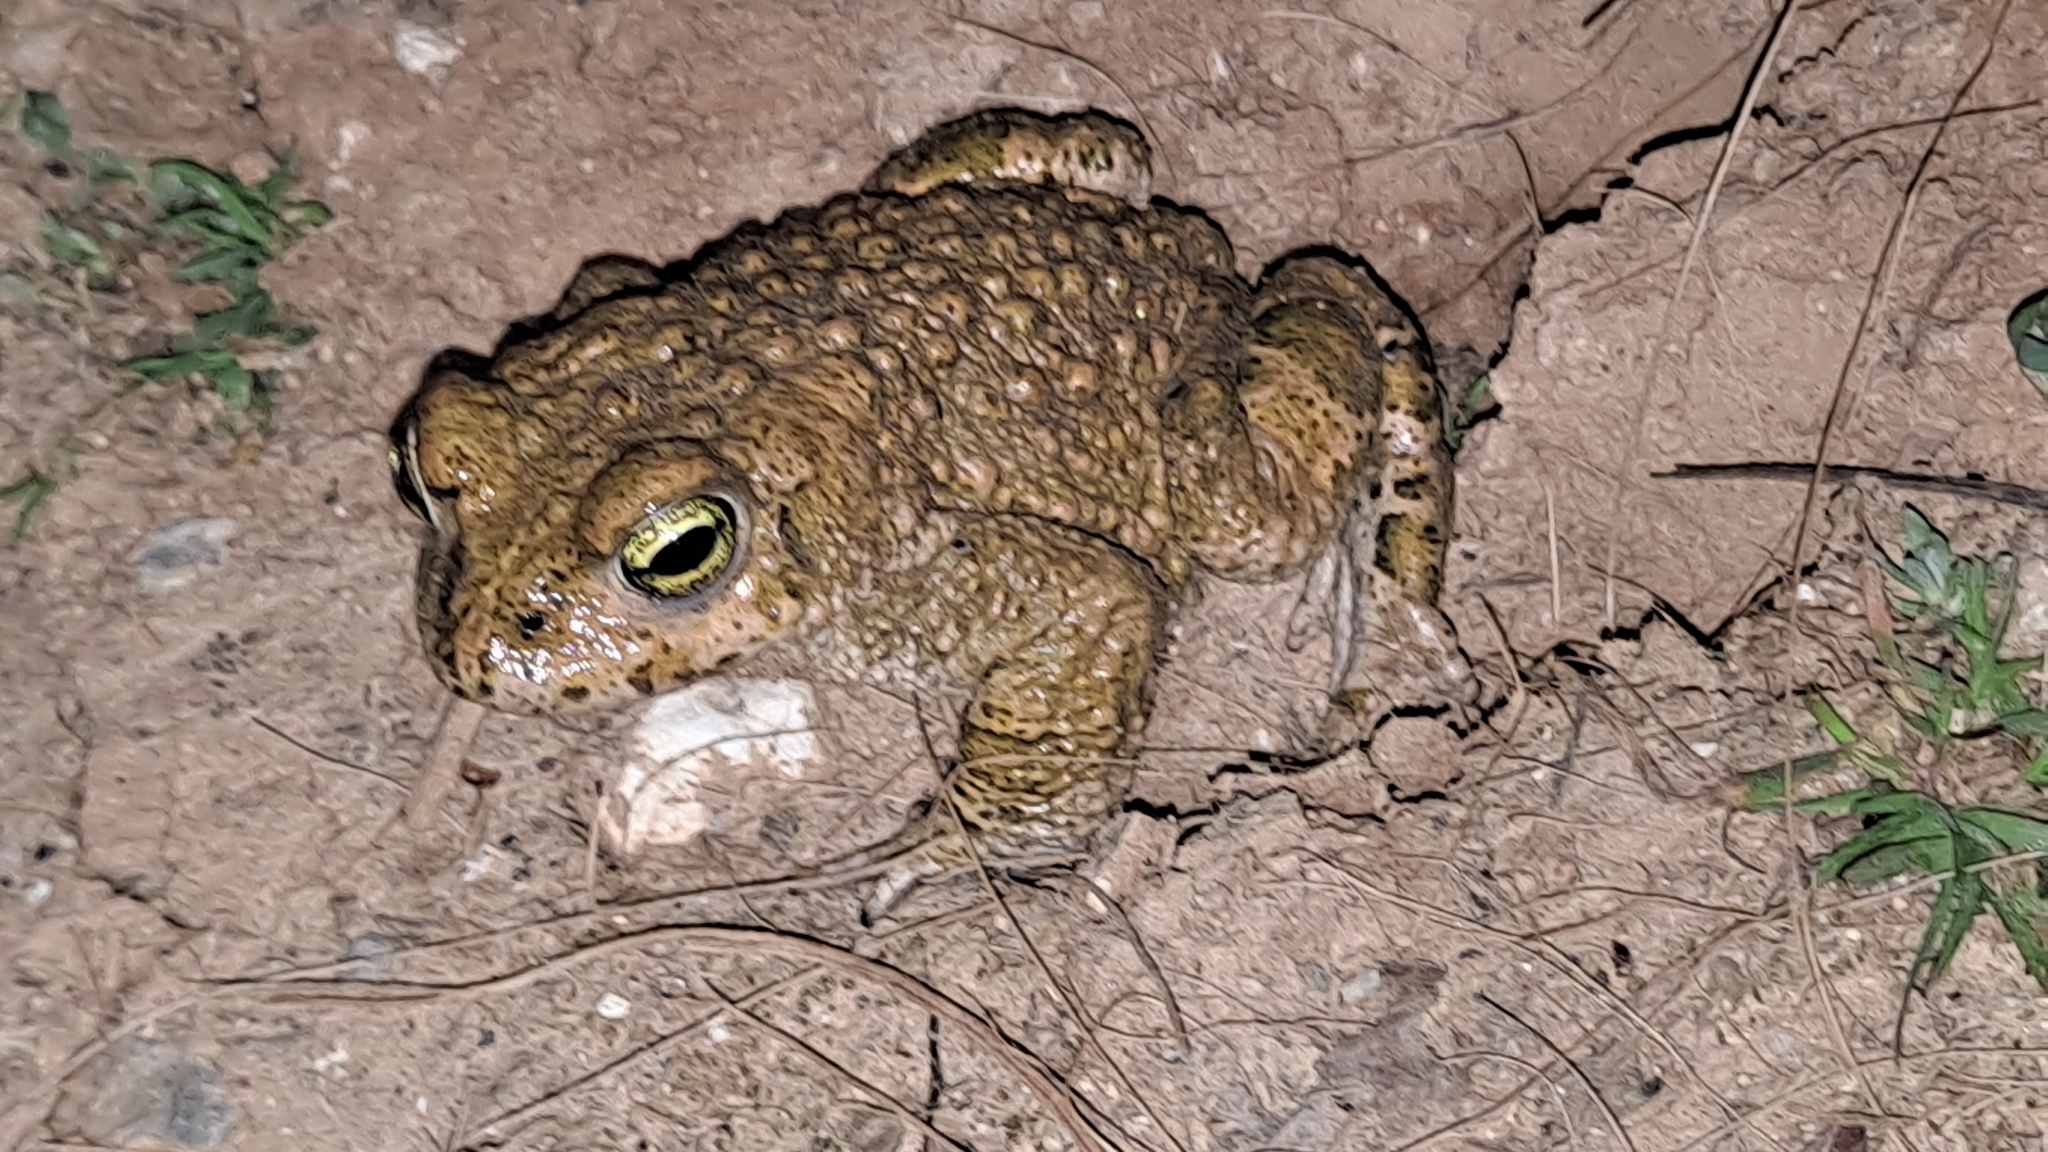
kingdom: Animalia
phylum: Chordata
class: Amphibia
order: Anura
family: Bufonidae
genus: Epidalea
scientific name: Epidalea calamita
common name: Natterjack toad
